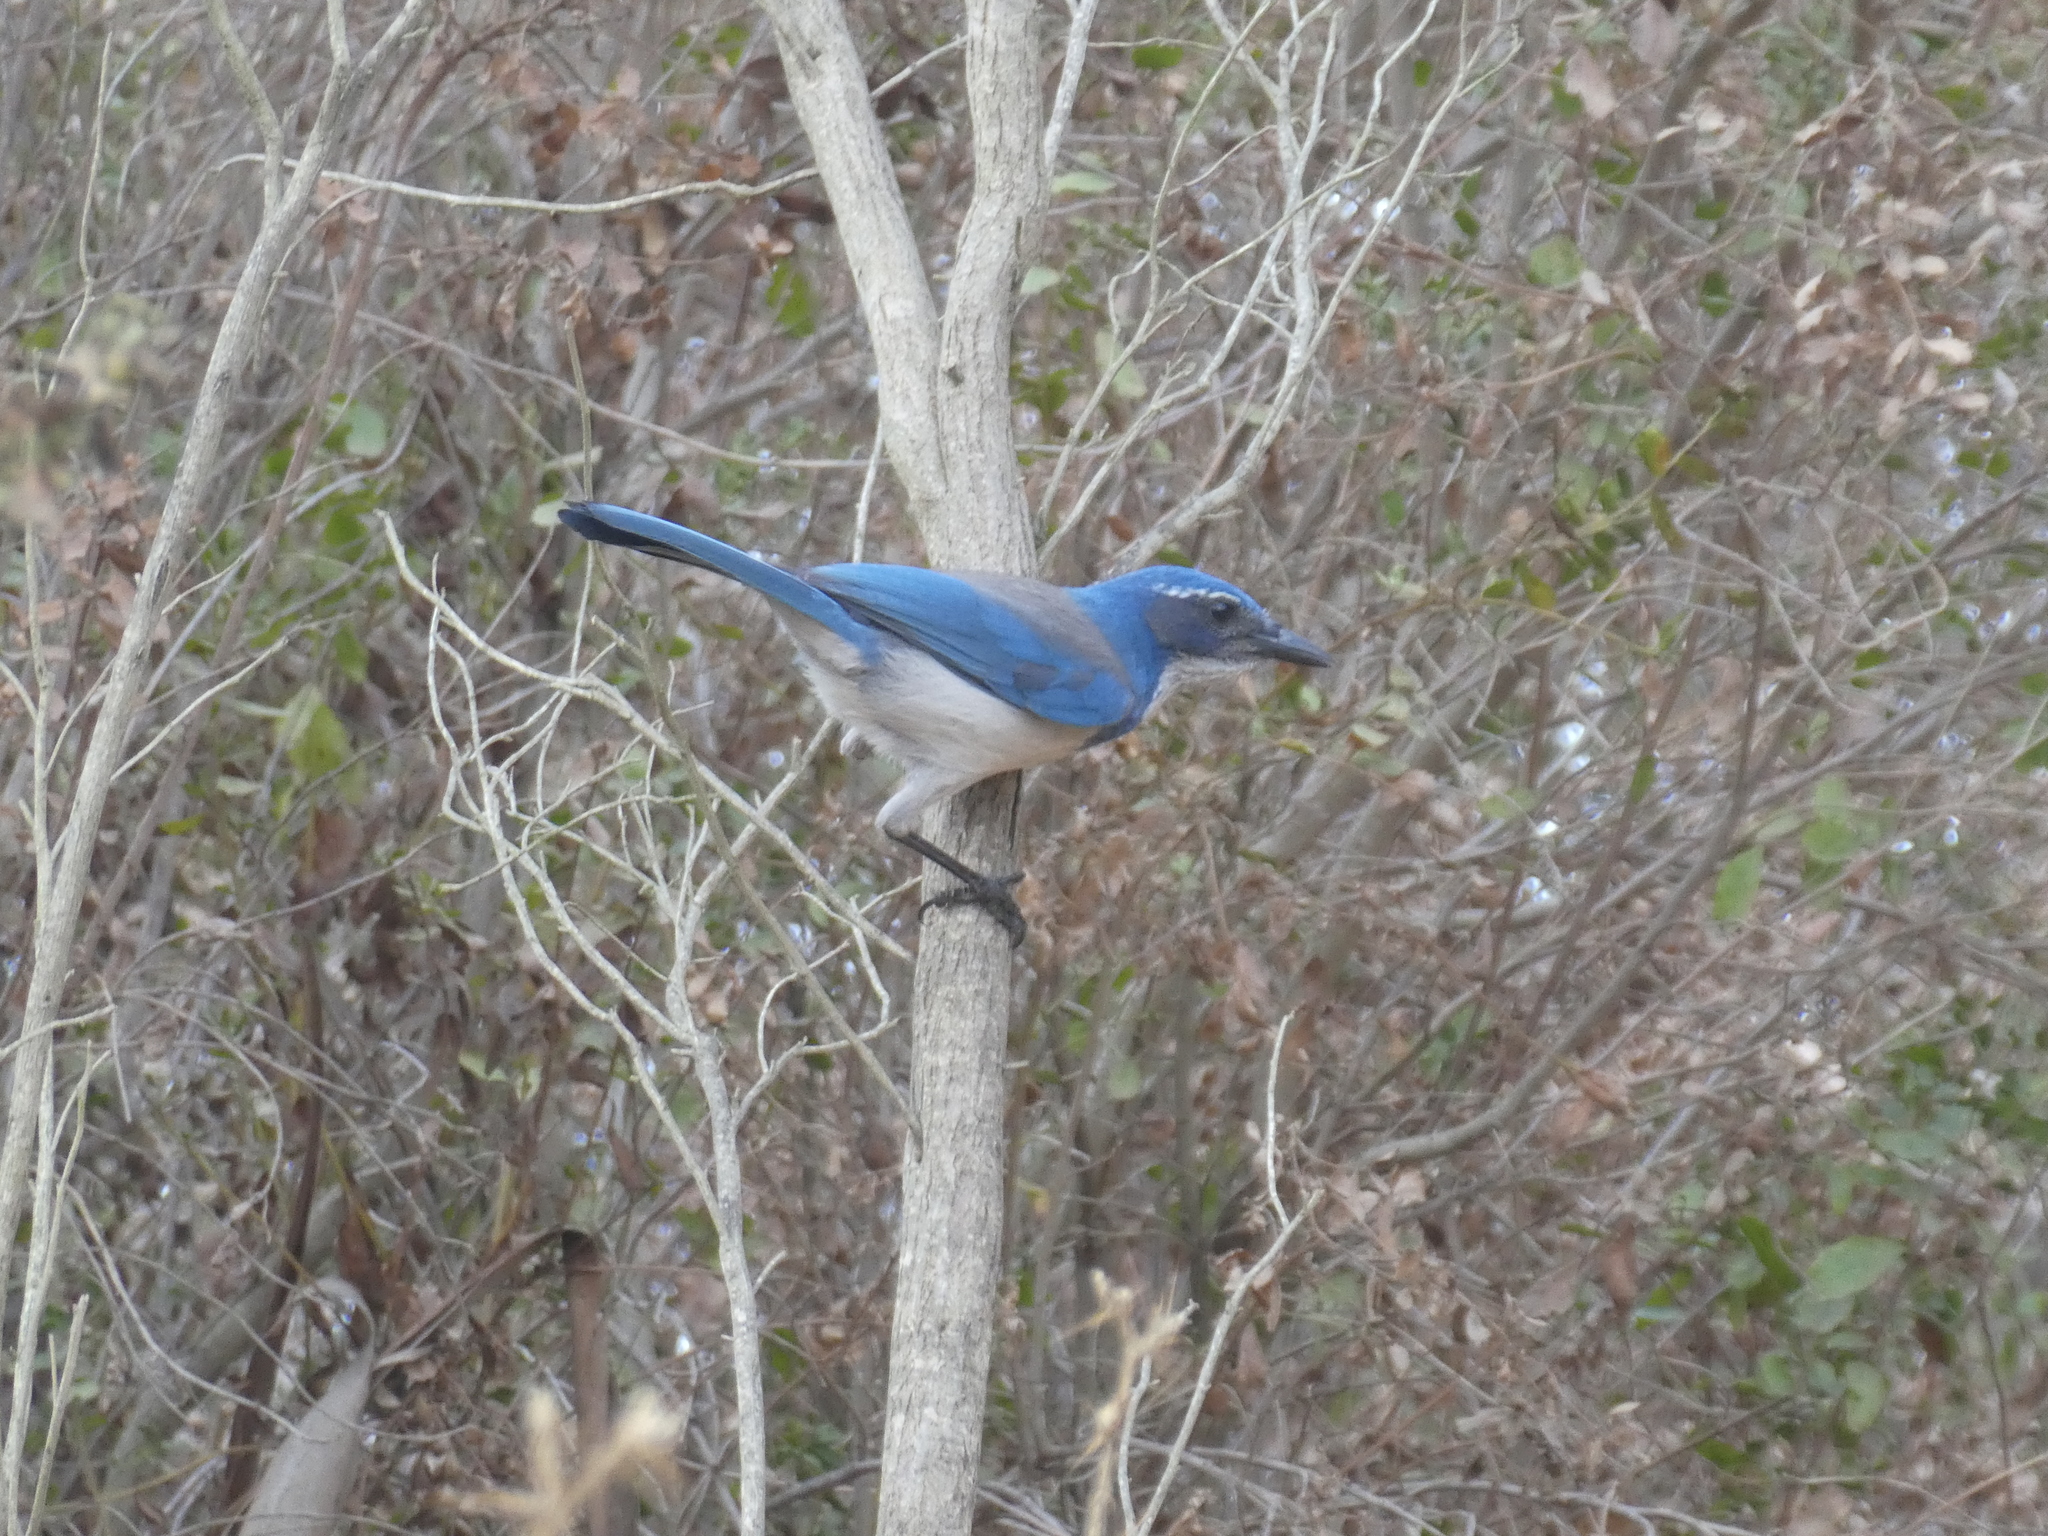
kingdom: Animalia
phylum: Chordata
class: Aves
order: Passeriformes
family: Corvidae
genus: Aphelocoma
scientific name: Aphelocoma californica
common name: California scrub-jay
